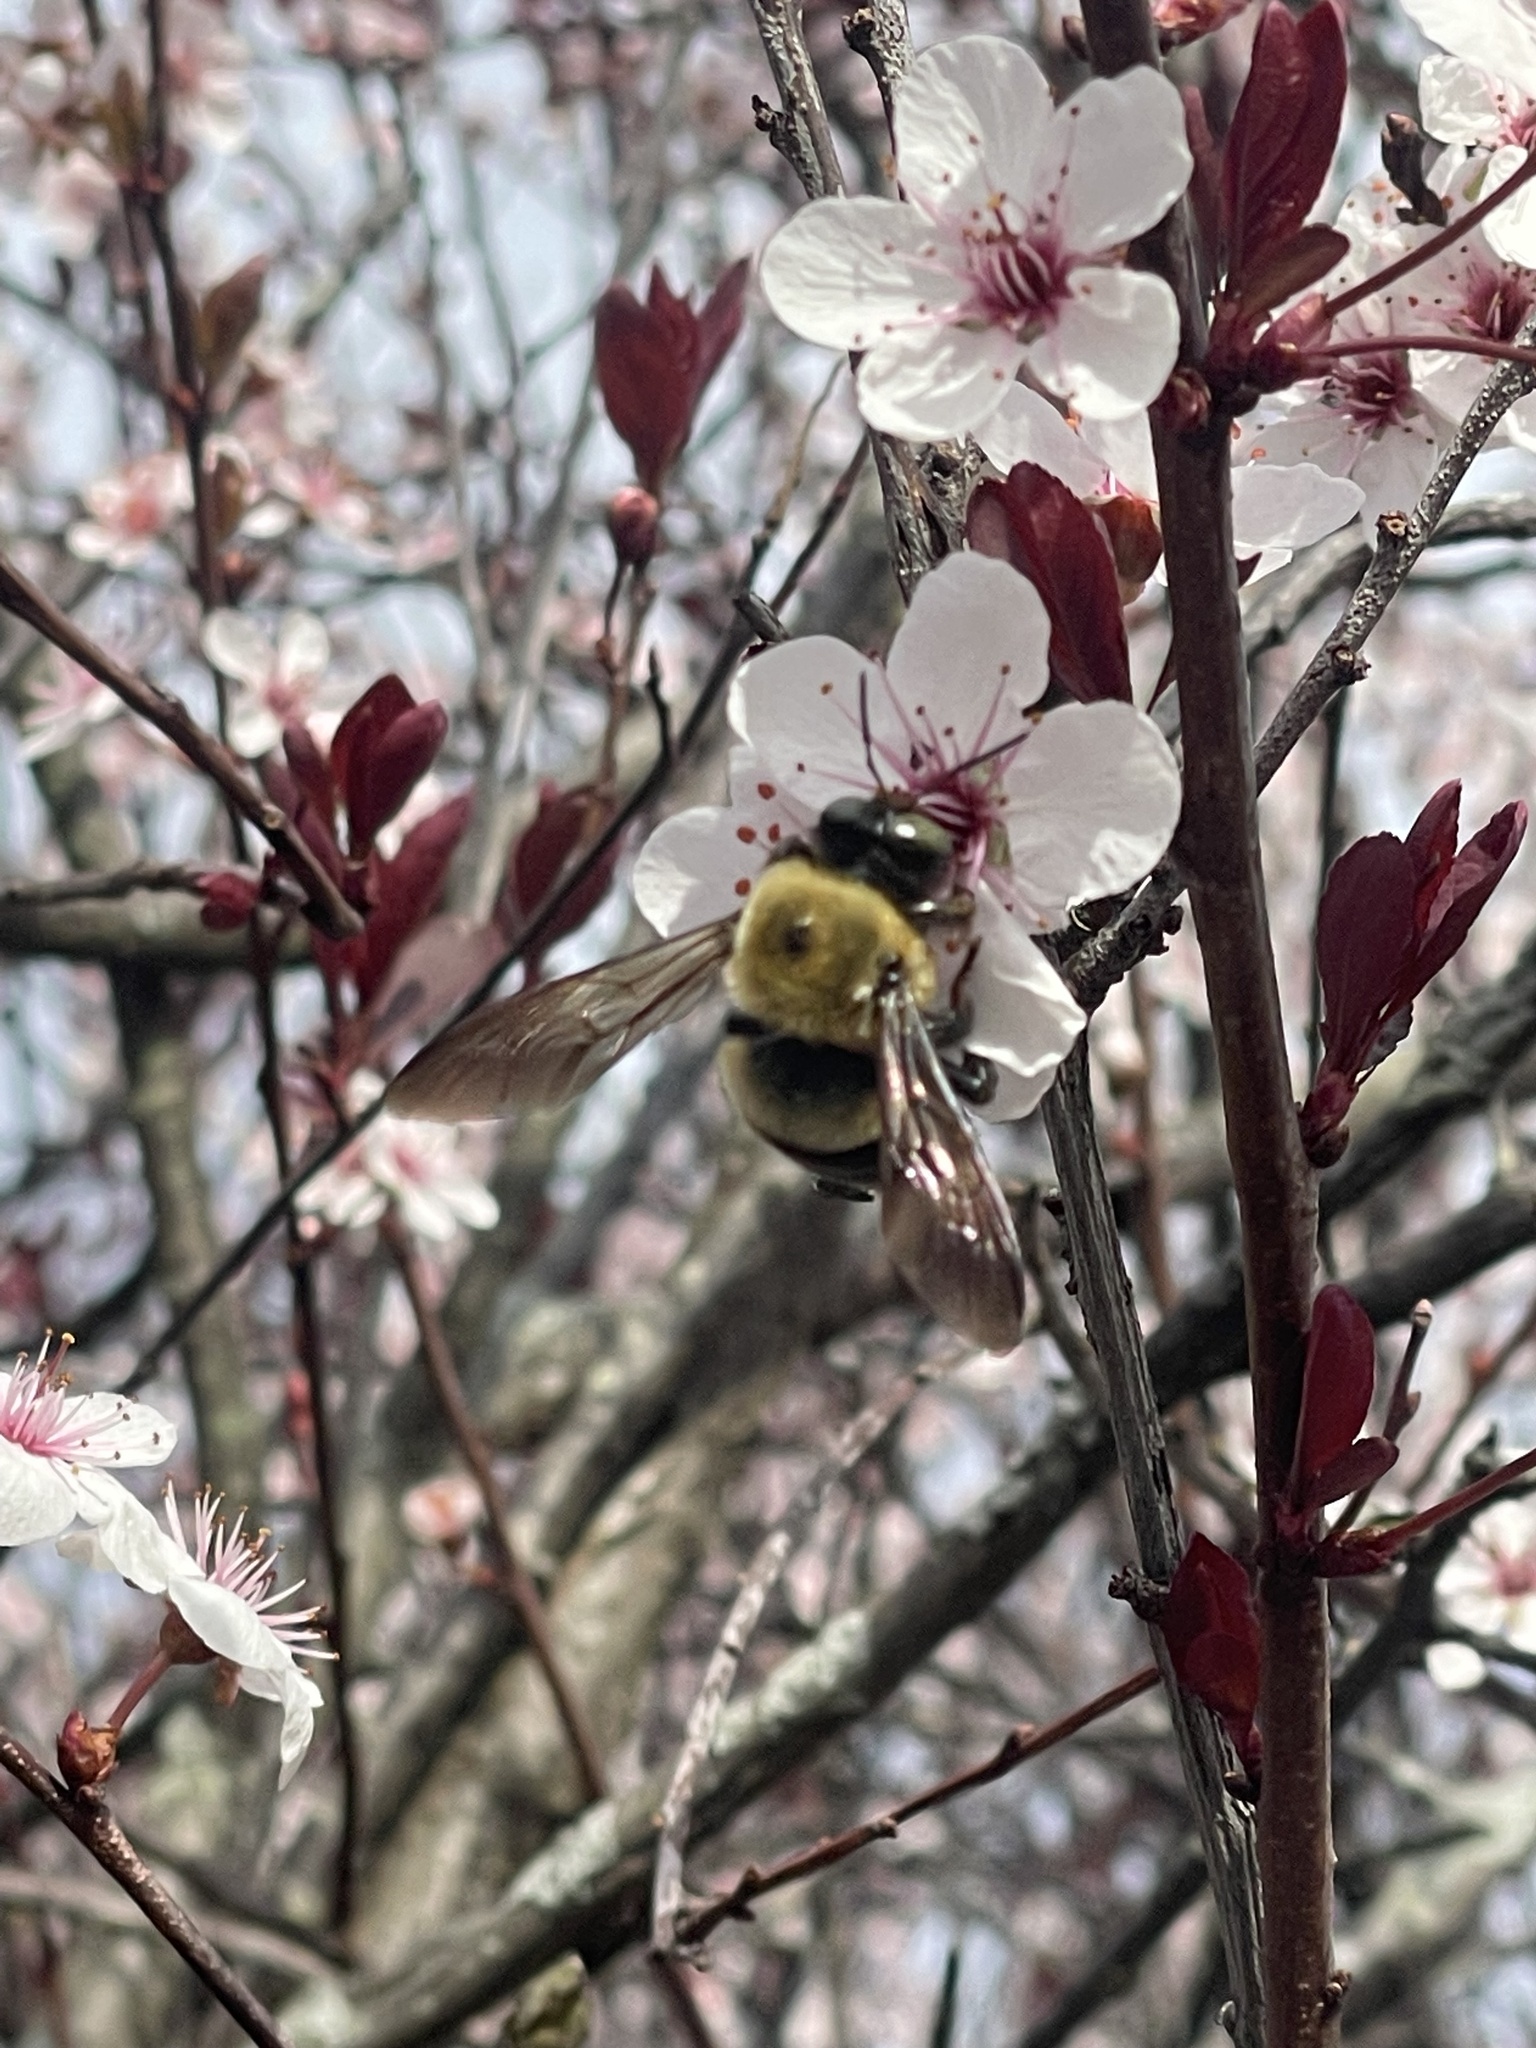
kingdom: Animalia
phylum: Arthropoda
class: Insecta
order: Hymenoptera
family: Apidae
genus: Xylocopa
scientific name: Xylocopa virginica
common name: Carpenter bee
